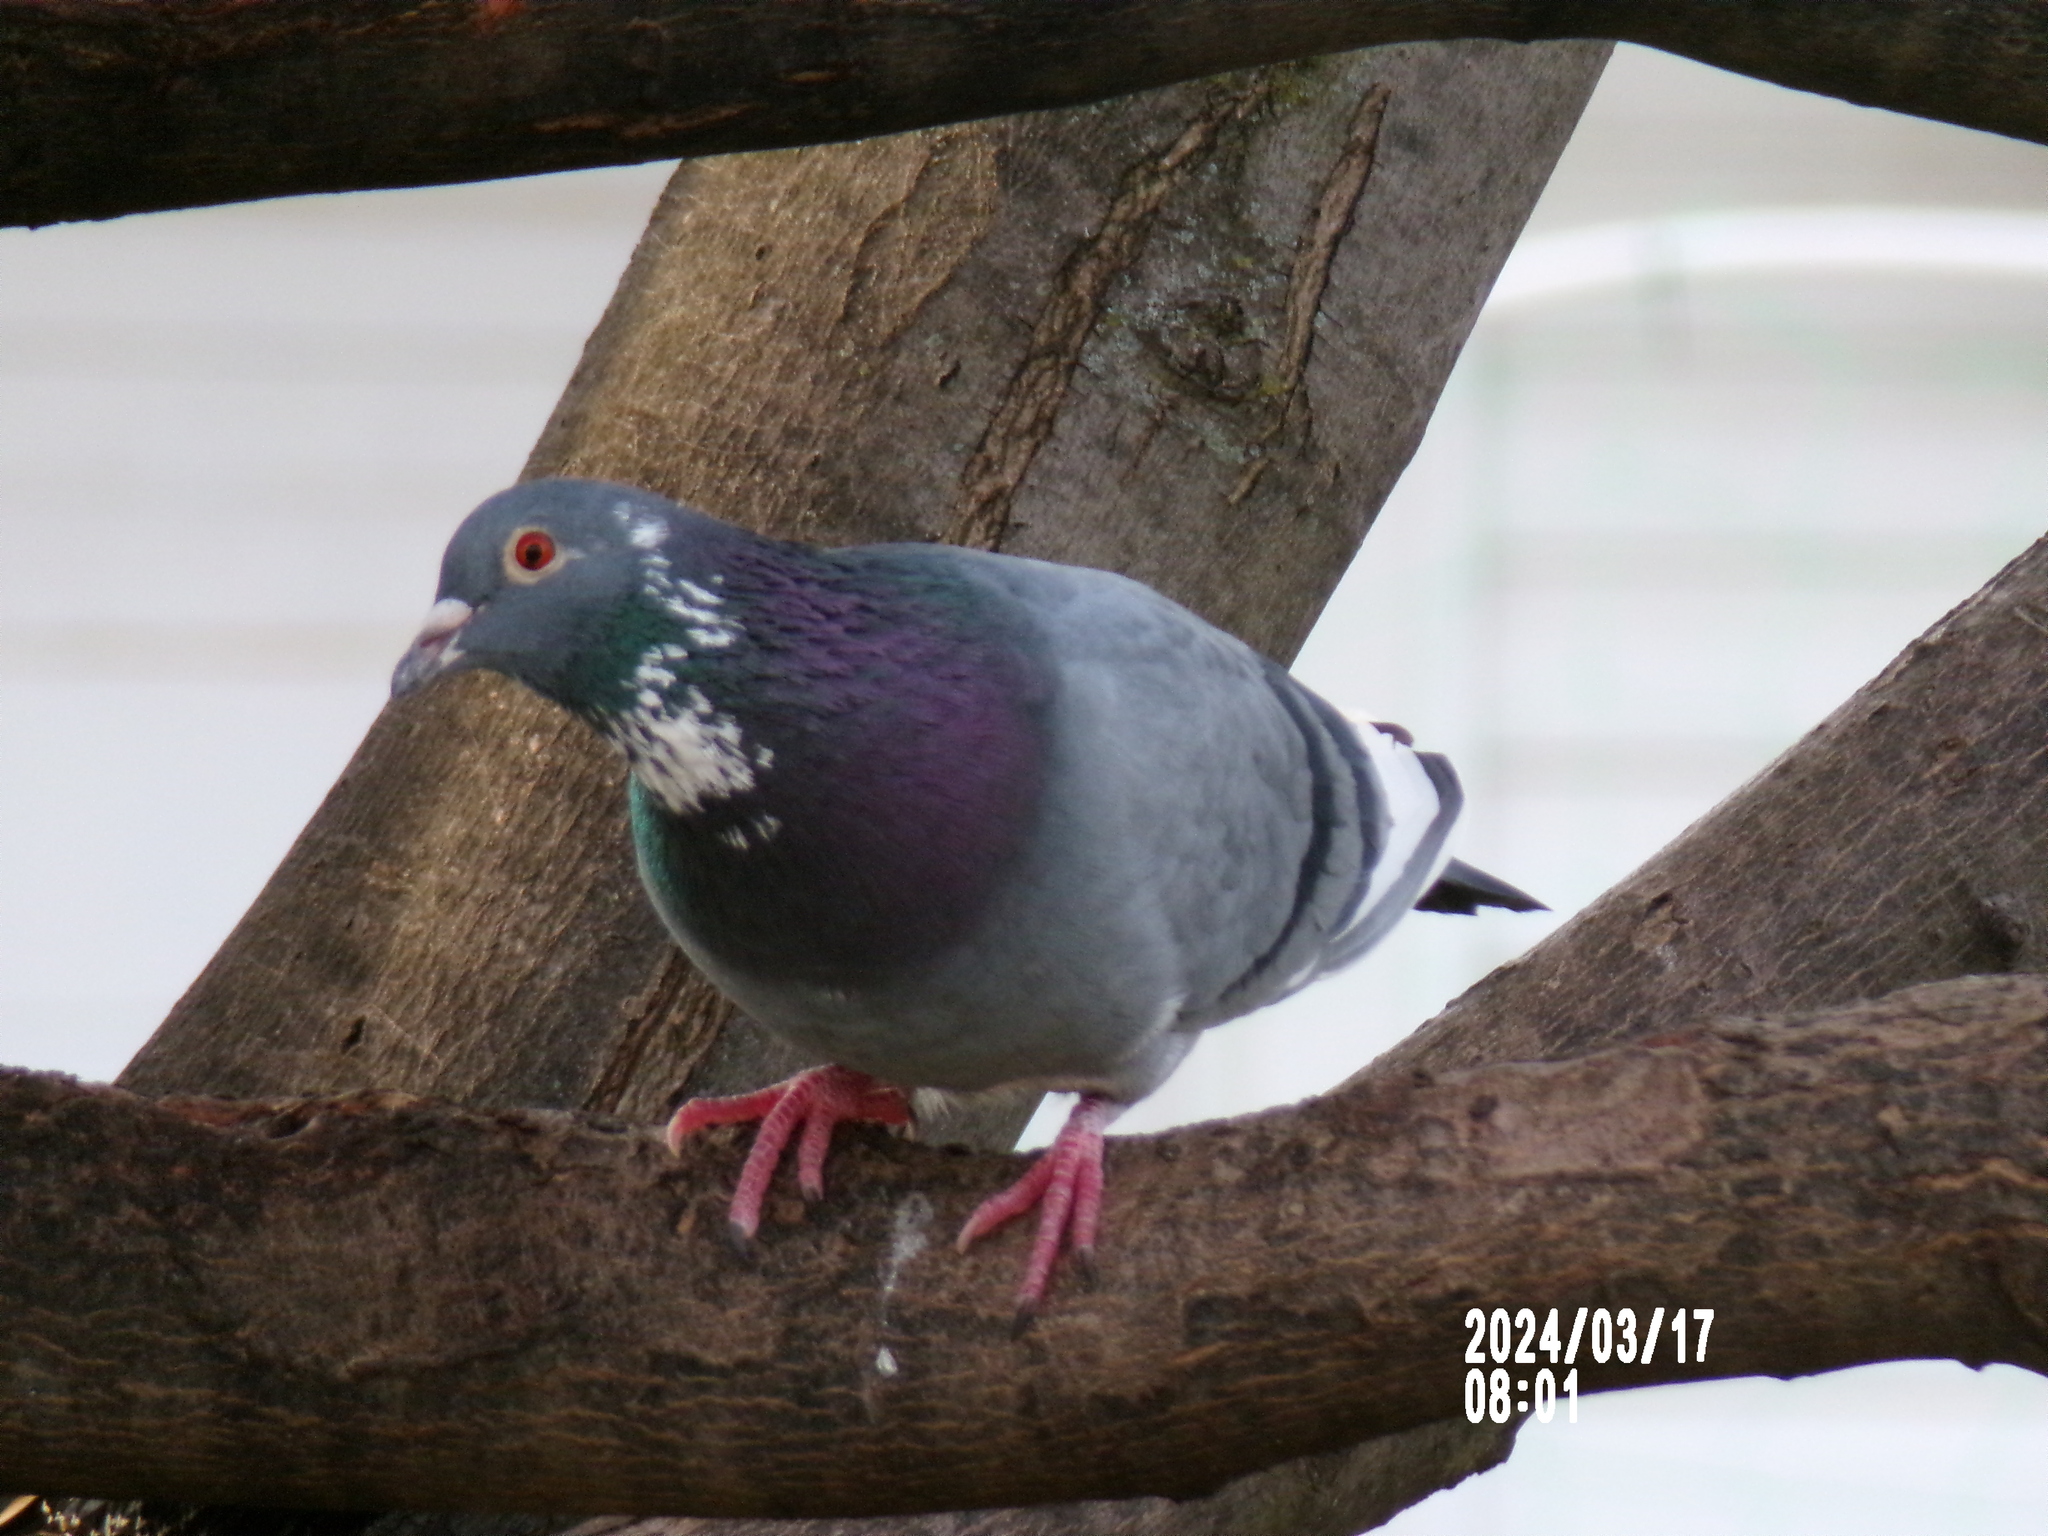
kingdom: Animalia
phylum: Chordata
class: Aves
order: Columbiformes
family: Columbidae
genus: Columba
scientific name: Columba livia
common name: Rock pigeon
